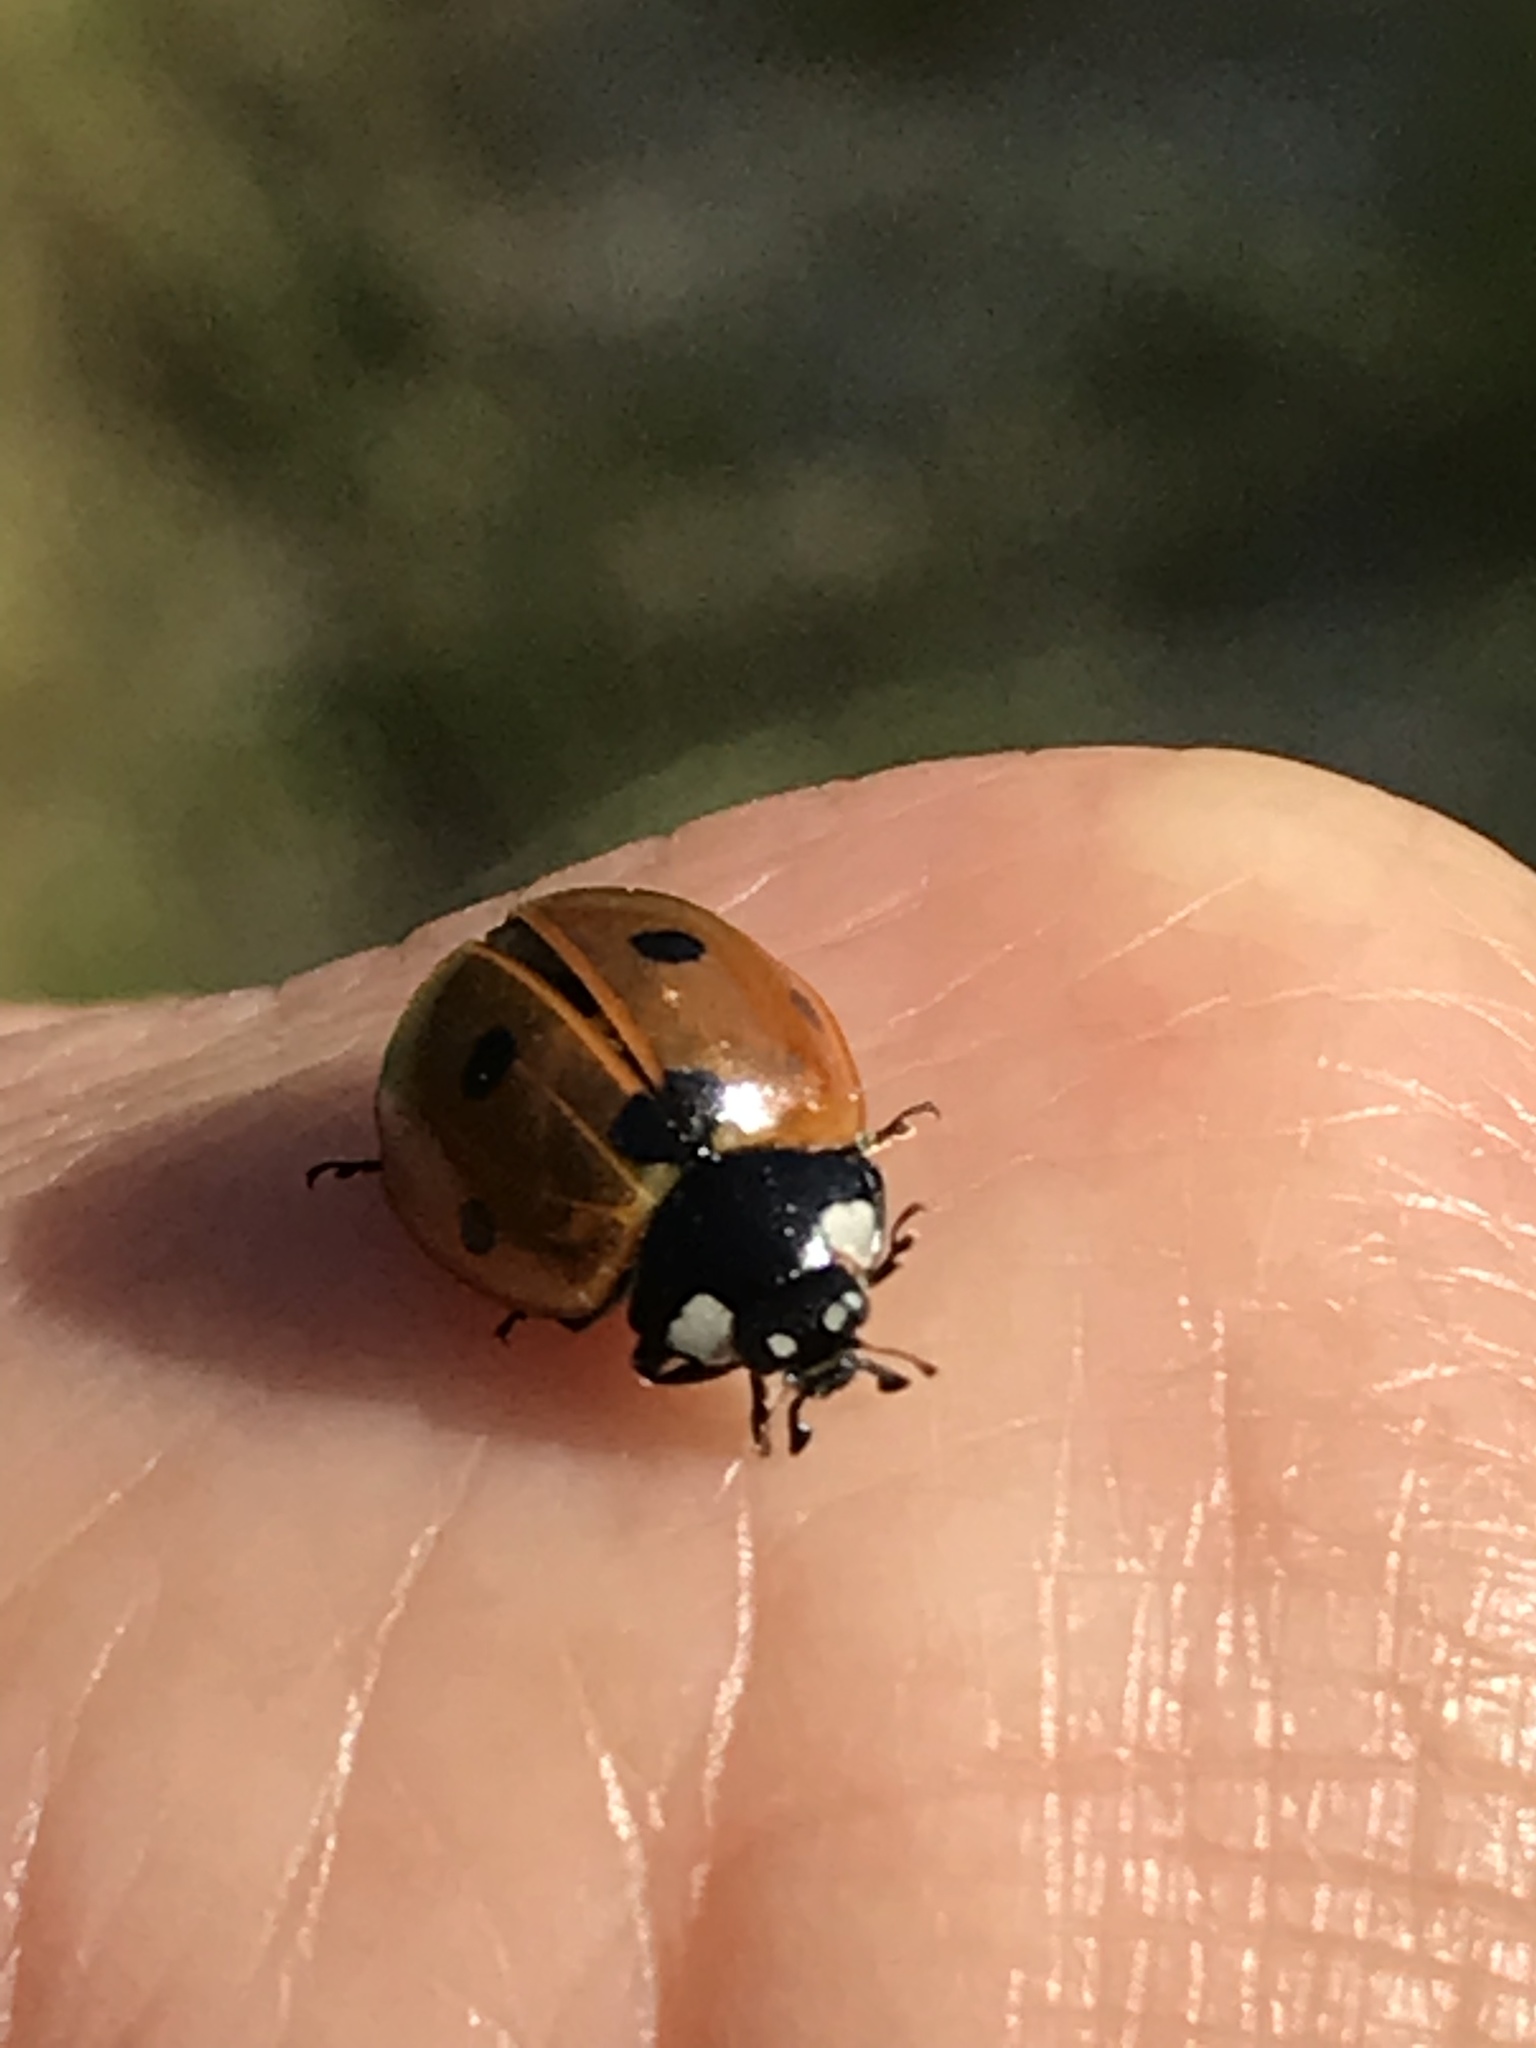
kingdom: Animalia
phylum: Arthropoda
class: Insecta
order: Coleoptera
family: Coccinellidae
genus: Coccinella
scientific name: Coccinella septempunctata
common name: Sevenspotted lady beetle
